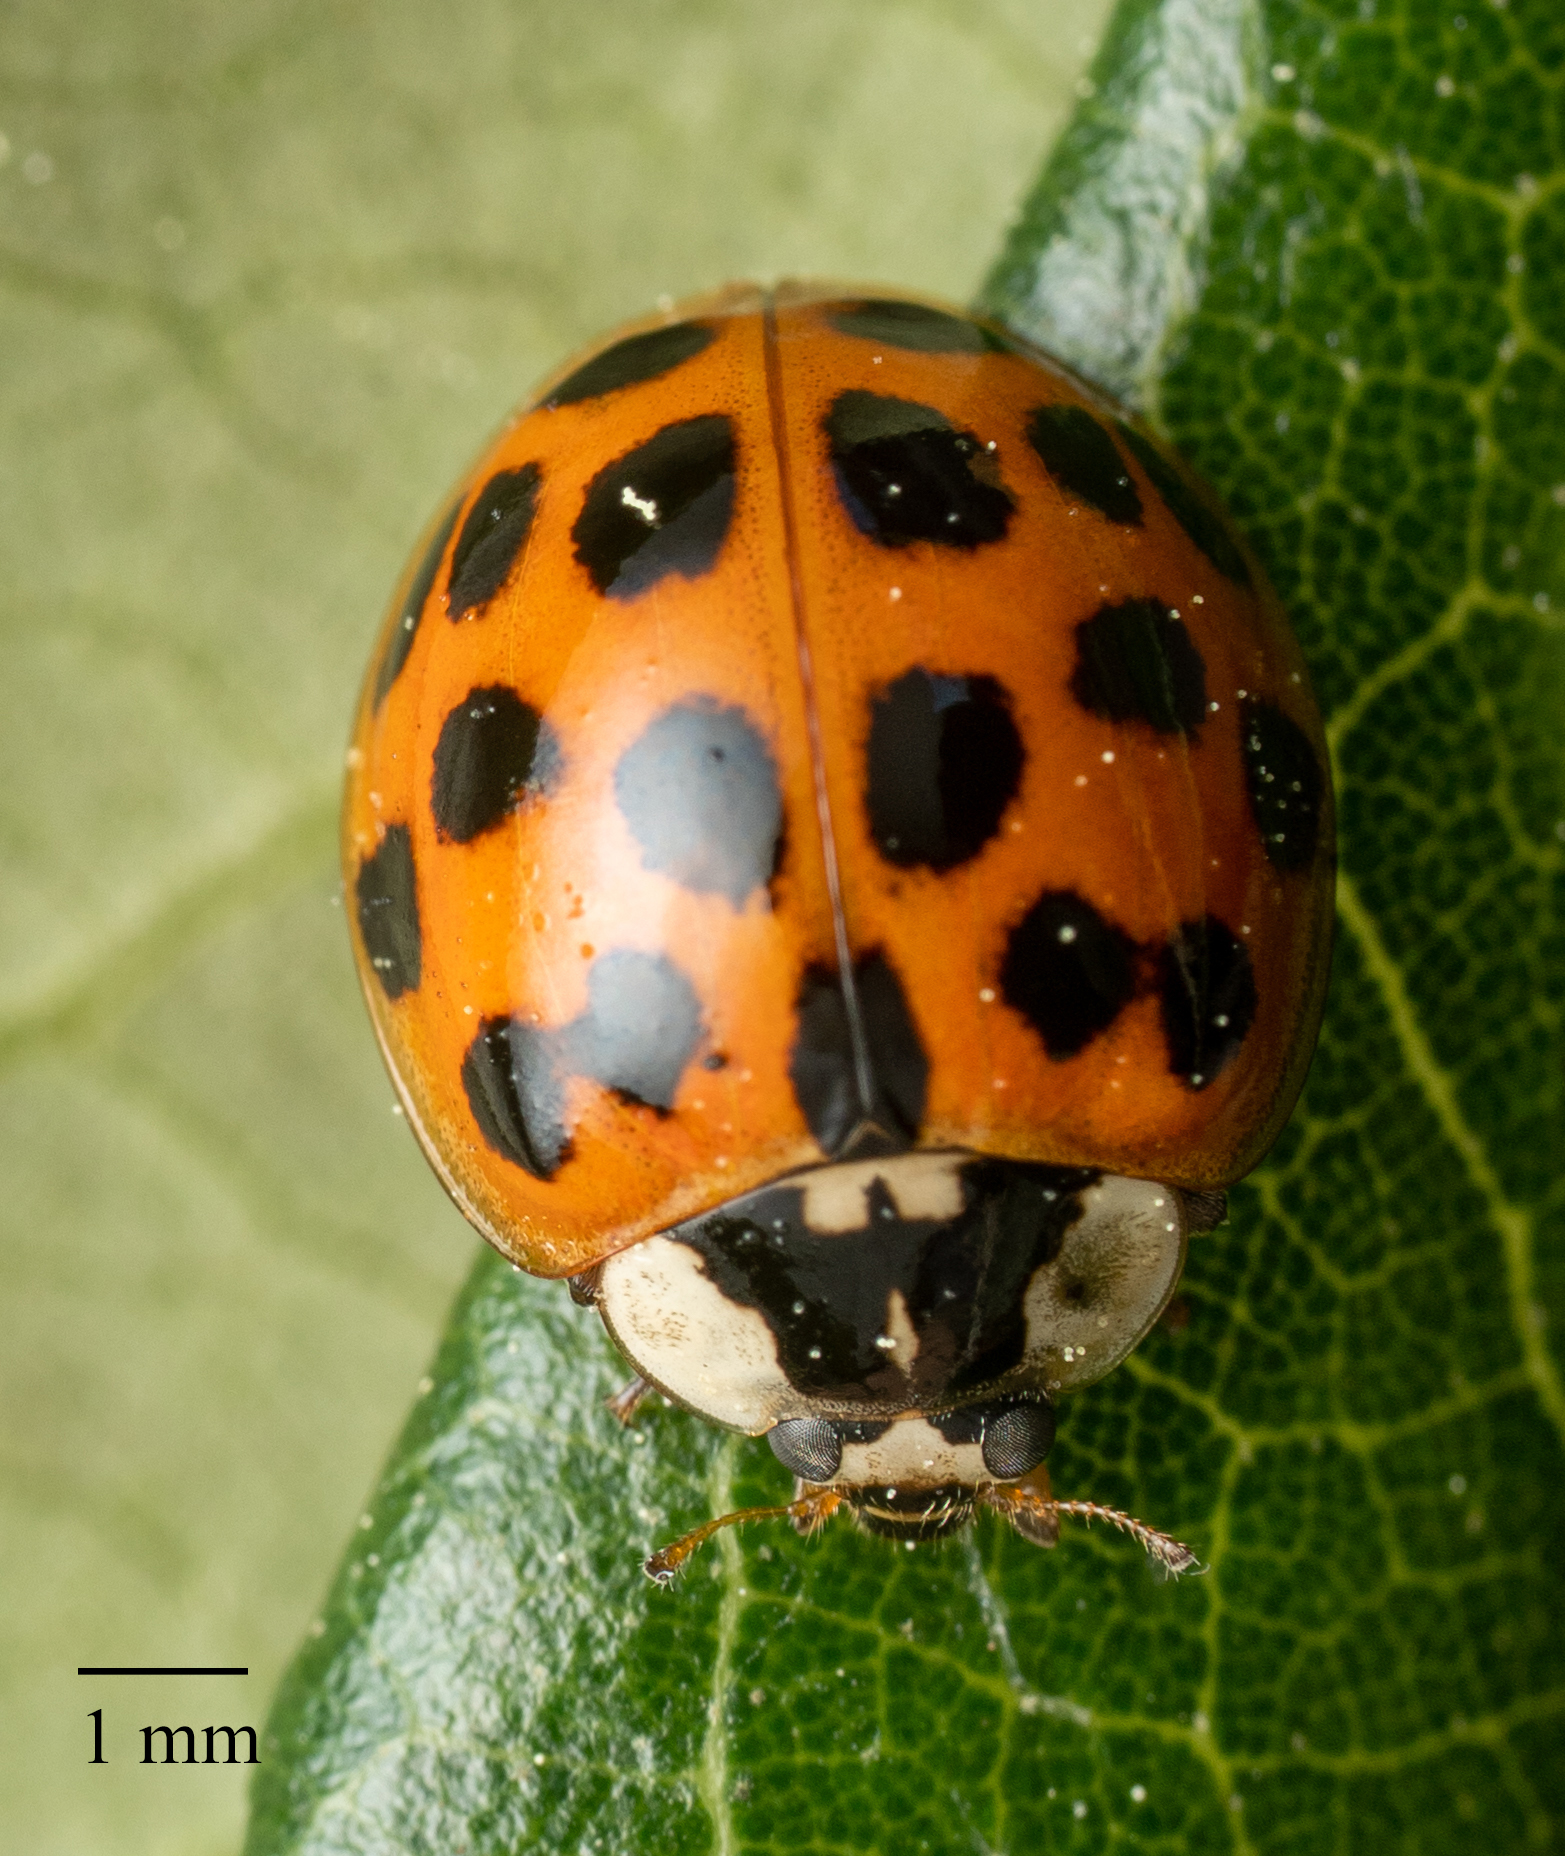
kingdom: Animalia
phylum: Arthropoda
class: Insecta
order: Coleoptera
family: Coccinellidae
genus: Harmonia
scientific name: Harmonia axyridis
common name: Harlequin ladybird
